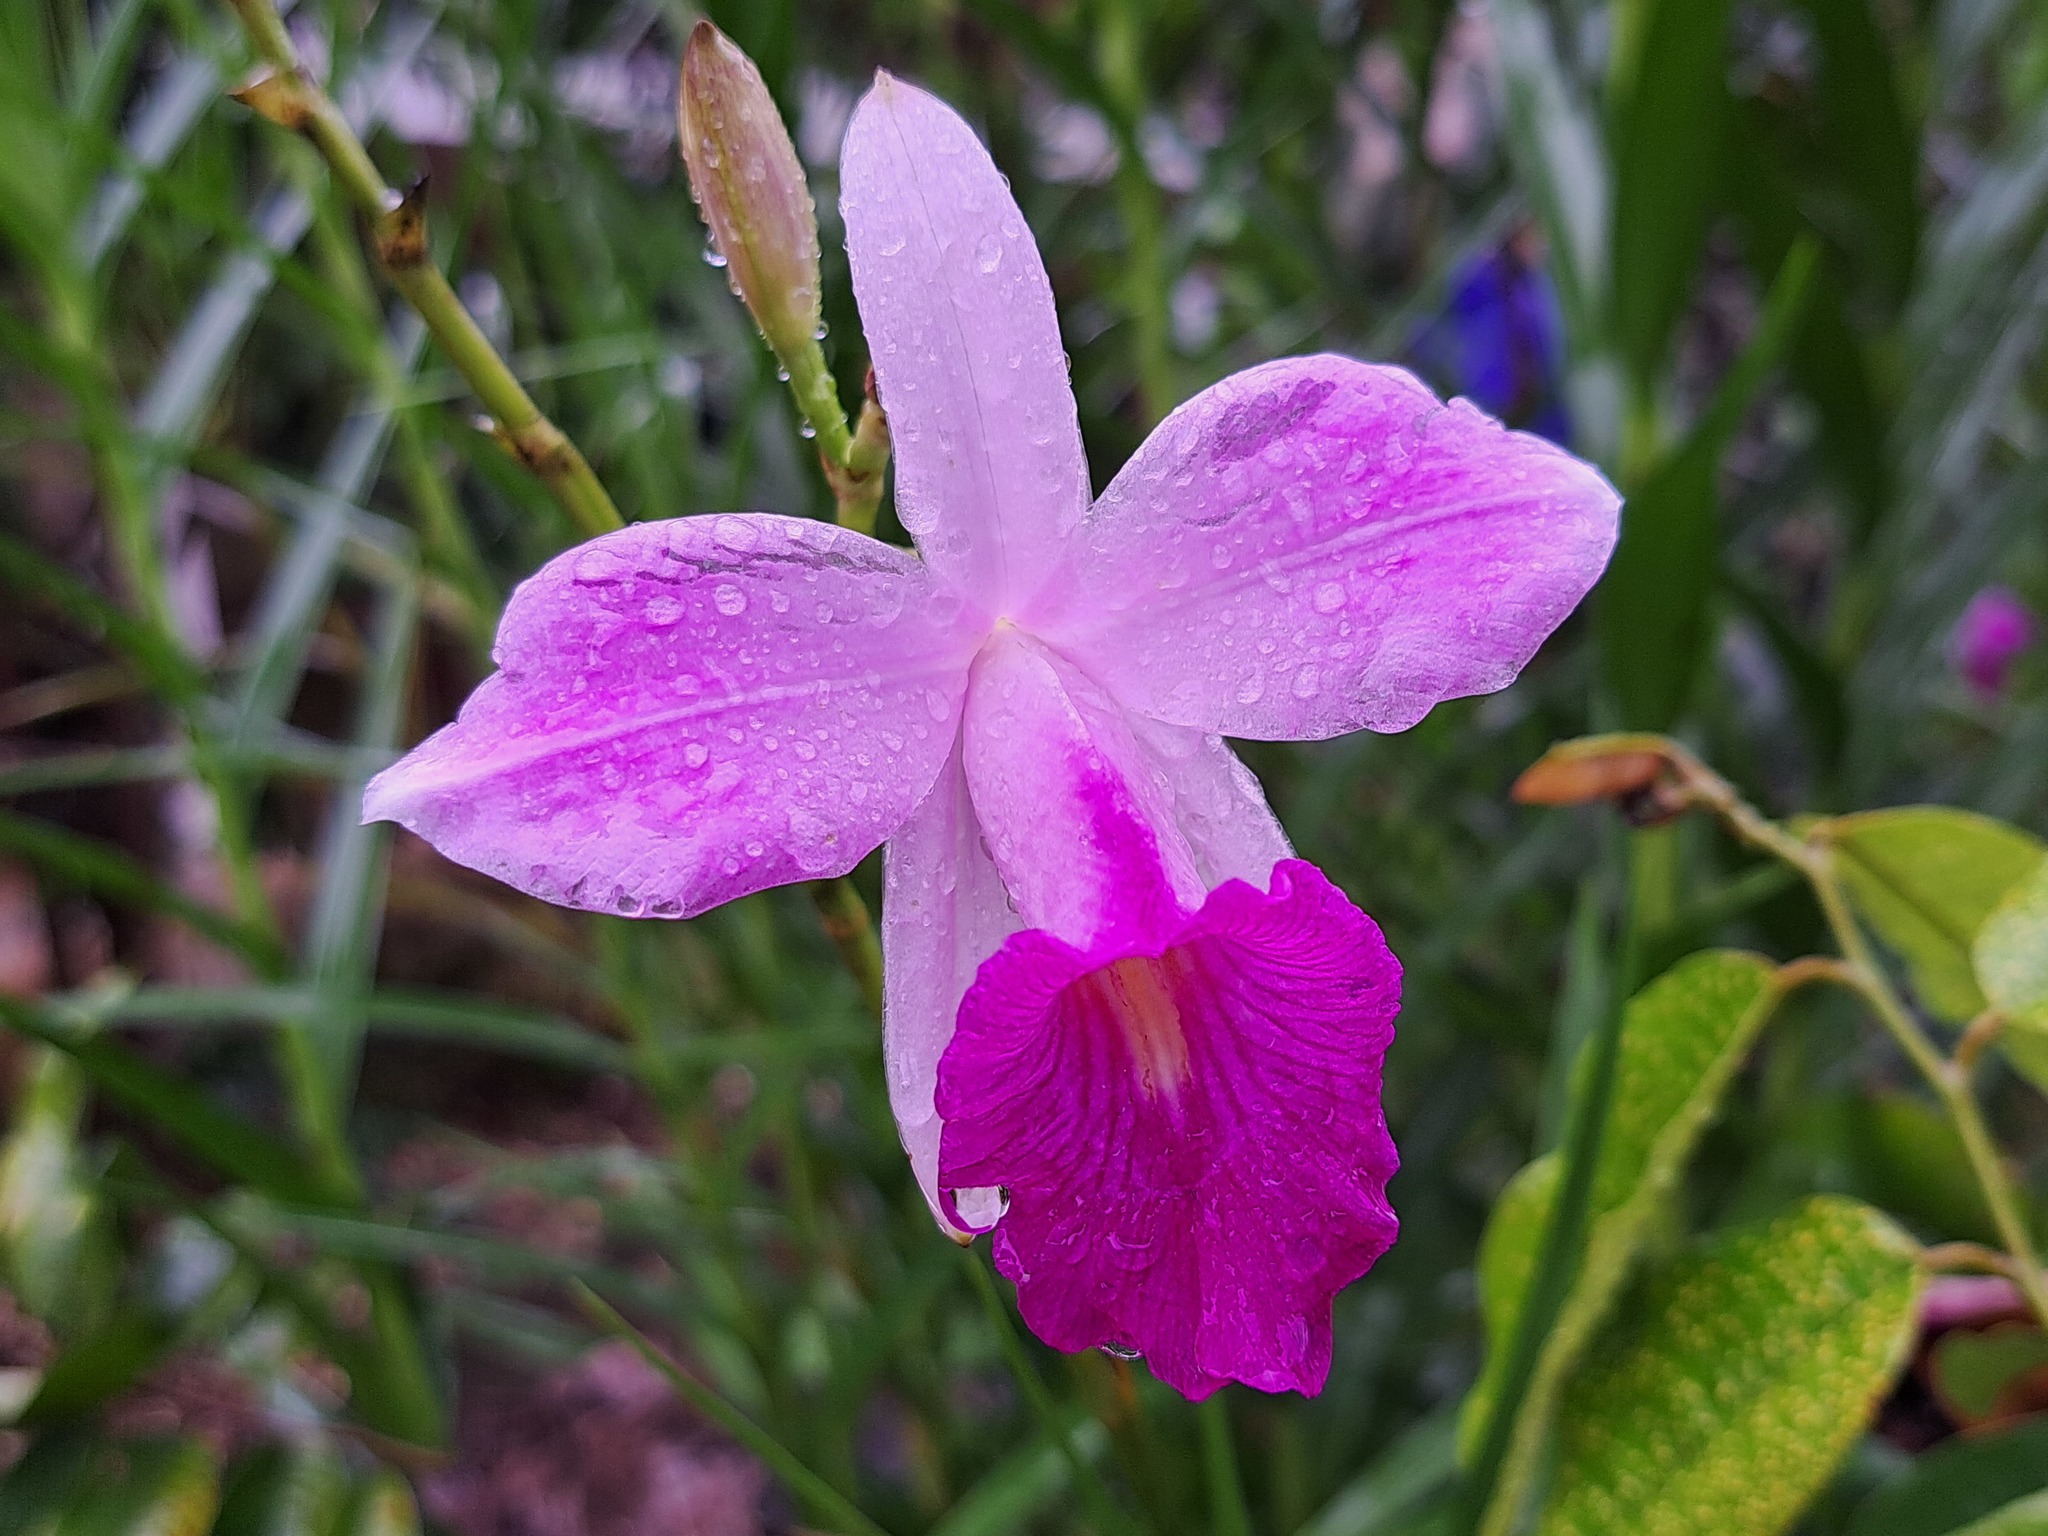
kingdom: Plantae
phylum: Tracheophyta
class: Liliopsida
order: Asparagales
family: Orchidaceae
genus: Arundina
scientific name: Arundina graminifolia
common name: Bamboo orchid
